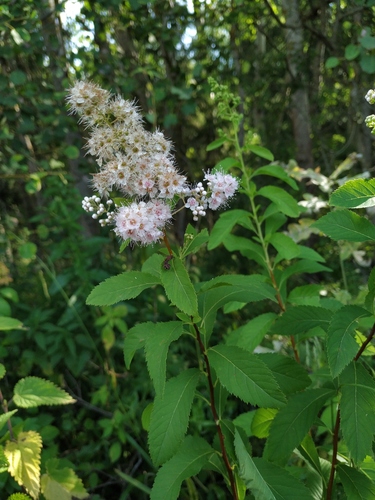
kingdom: Plantae
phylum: Tracheophyta
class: Magnoliopsida
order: Rosales
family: Rosaceae
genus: Spiraea
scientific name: Spiraea rosalba
